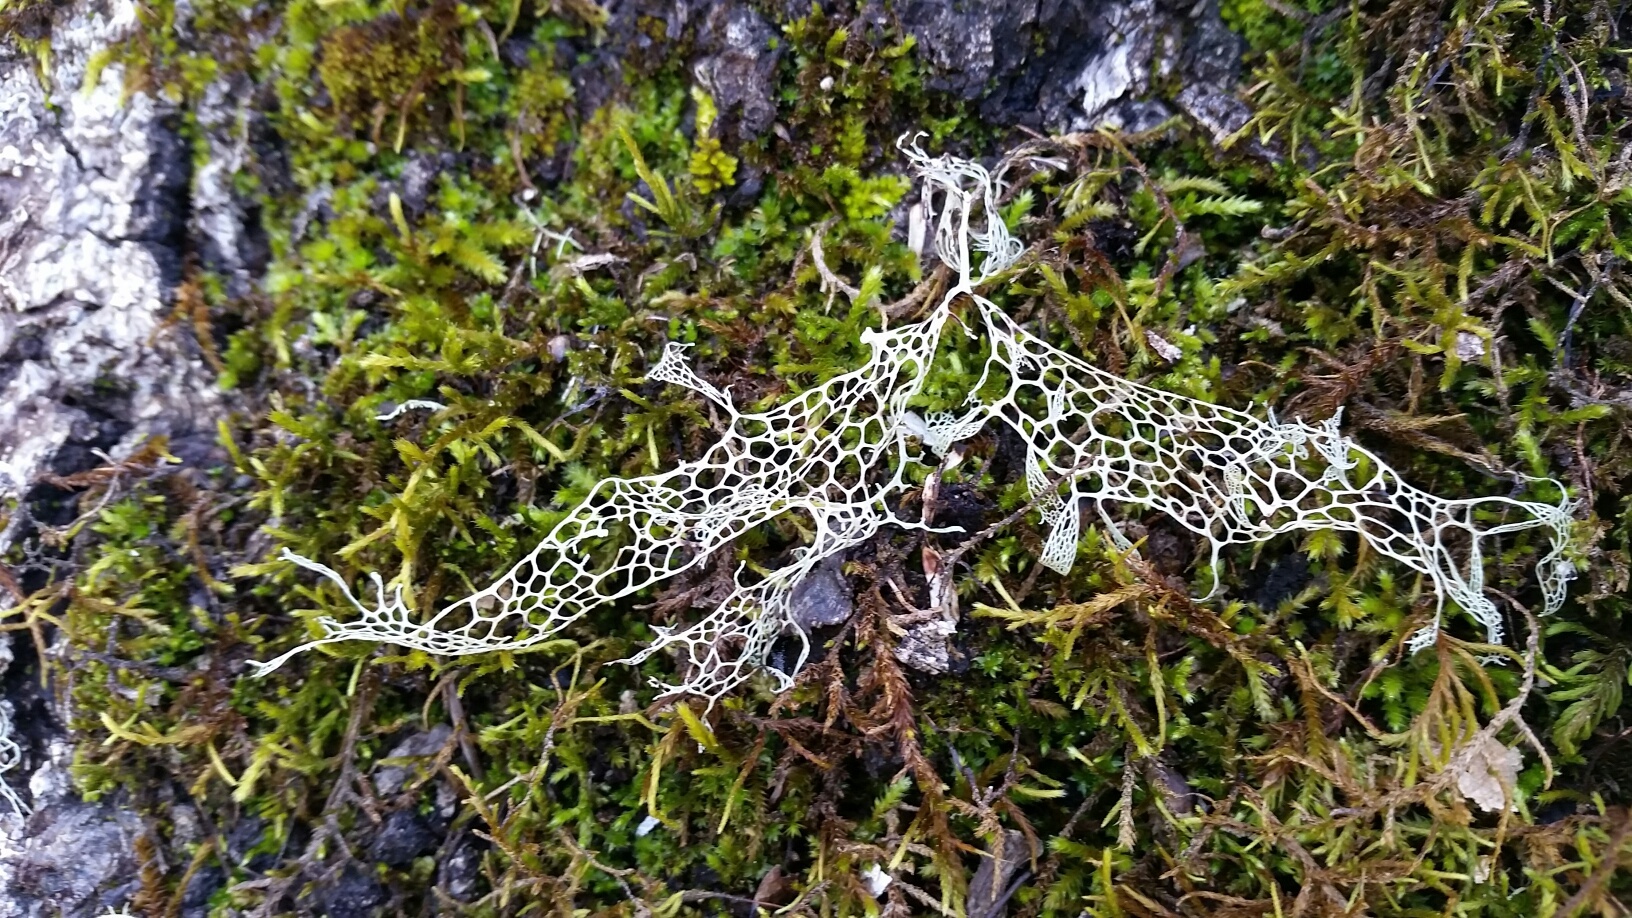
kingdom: Fungi
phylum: Ascomycota
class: Lecanoromycetes
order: Lecanorales
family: Ramalinaceae
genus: Ramalina
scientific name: Ramalina menziesii
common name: Lace lichen
